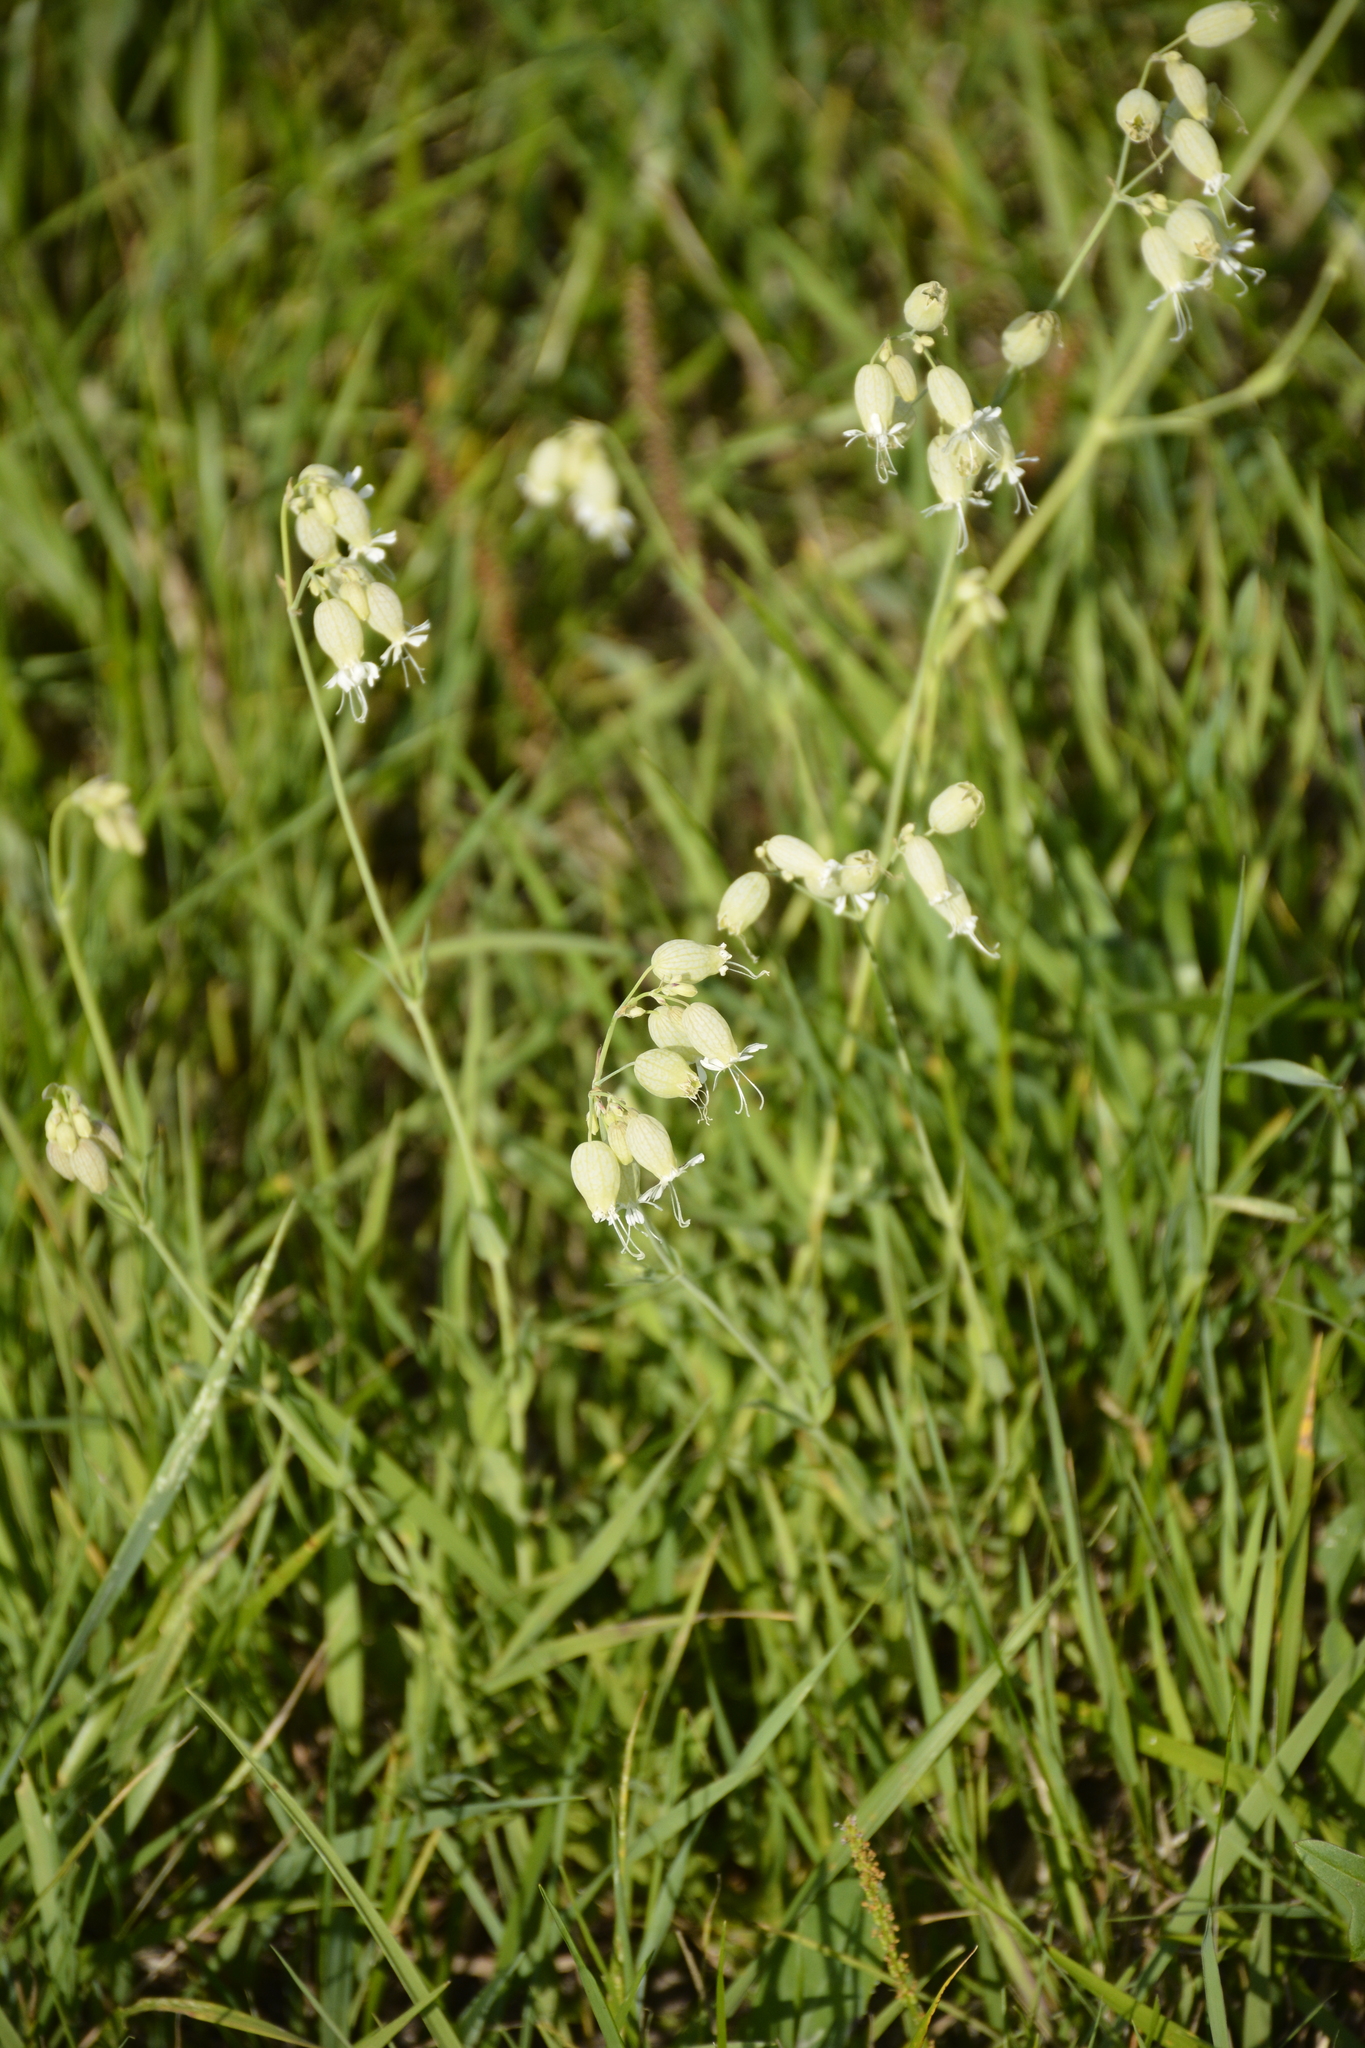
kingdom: Plantae
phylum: Tracheophyta
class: Magnoliopsida
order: Caryophyllales
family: Caryophyllaceae
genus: Silene
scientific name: Silene vulgaris
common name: Bladder campion
